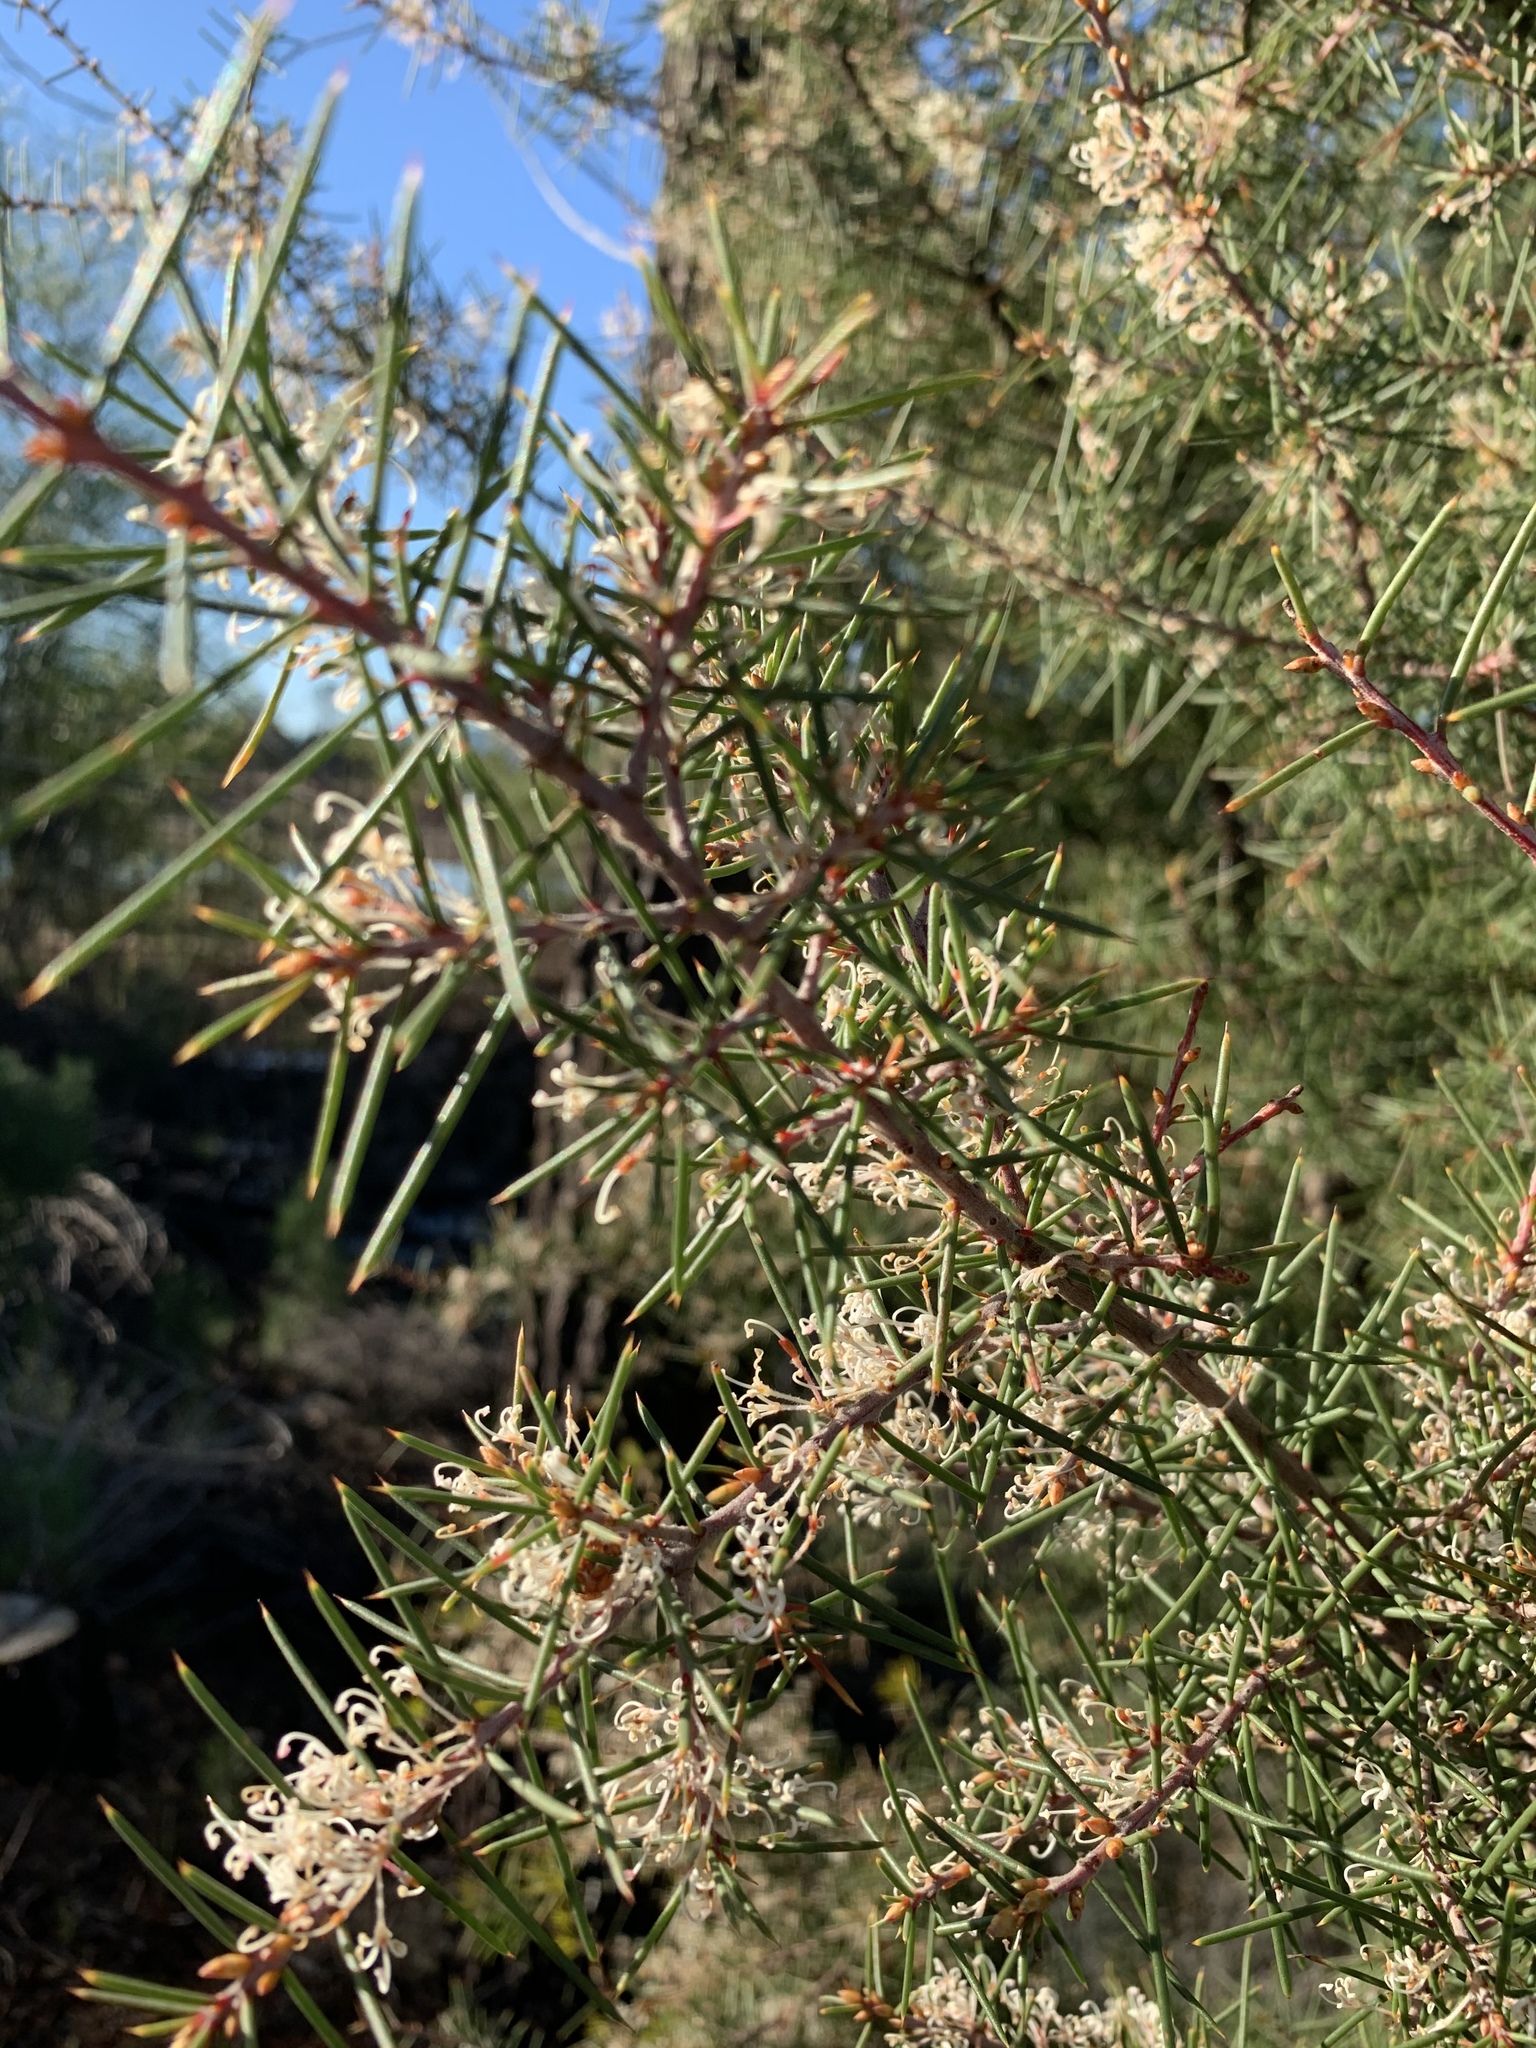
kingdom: Plantae
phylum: Tracheophyta
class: Magnoliopsida
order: Proteales
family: Proteaceae
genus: Hakea
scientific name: Hakea sericea
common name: Needle bush
